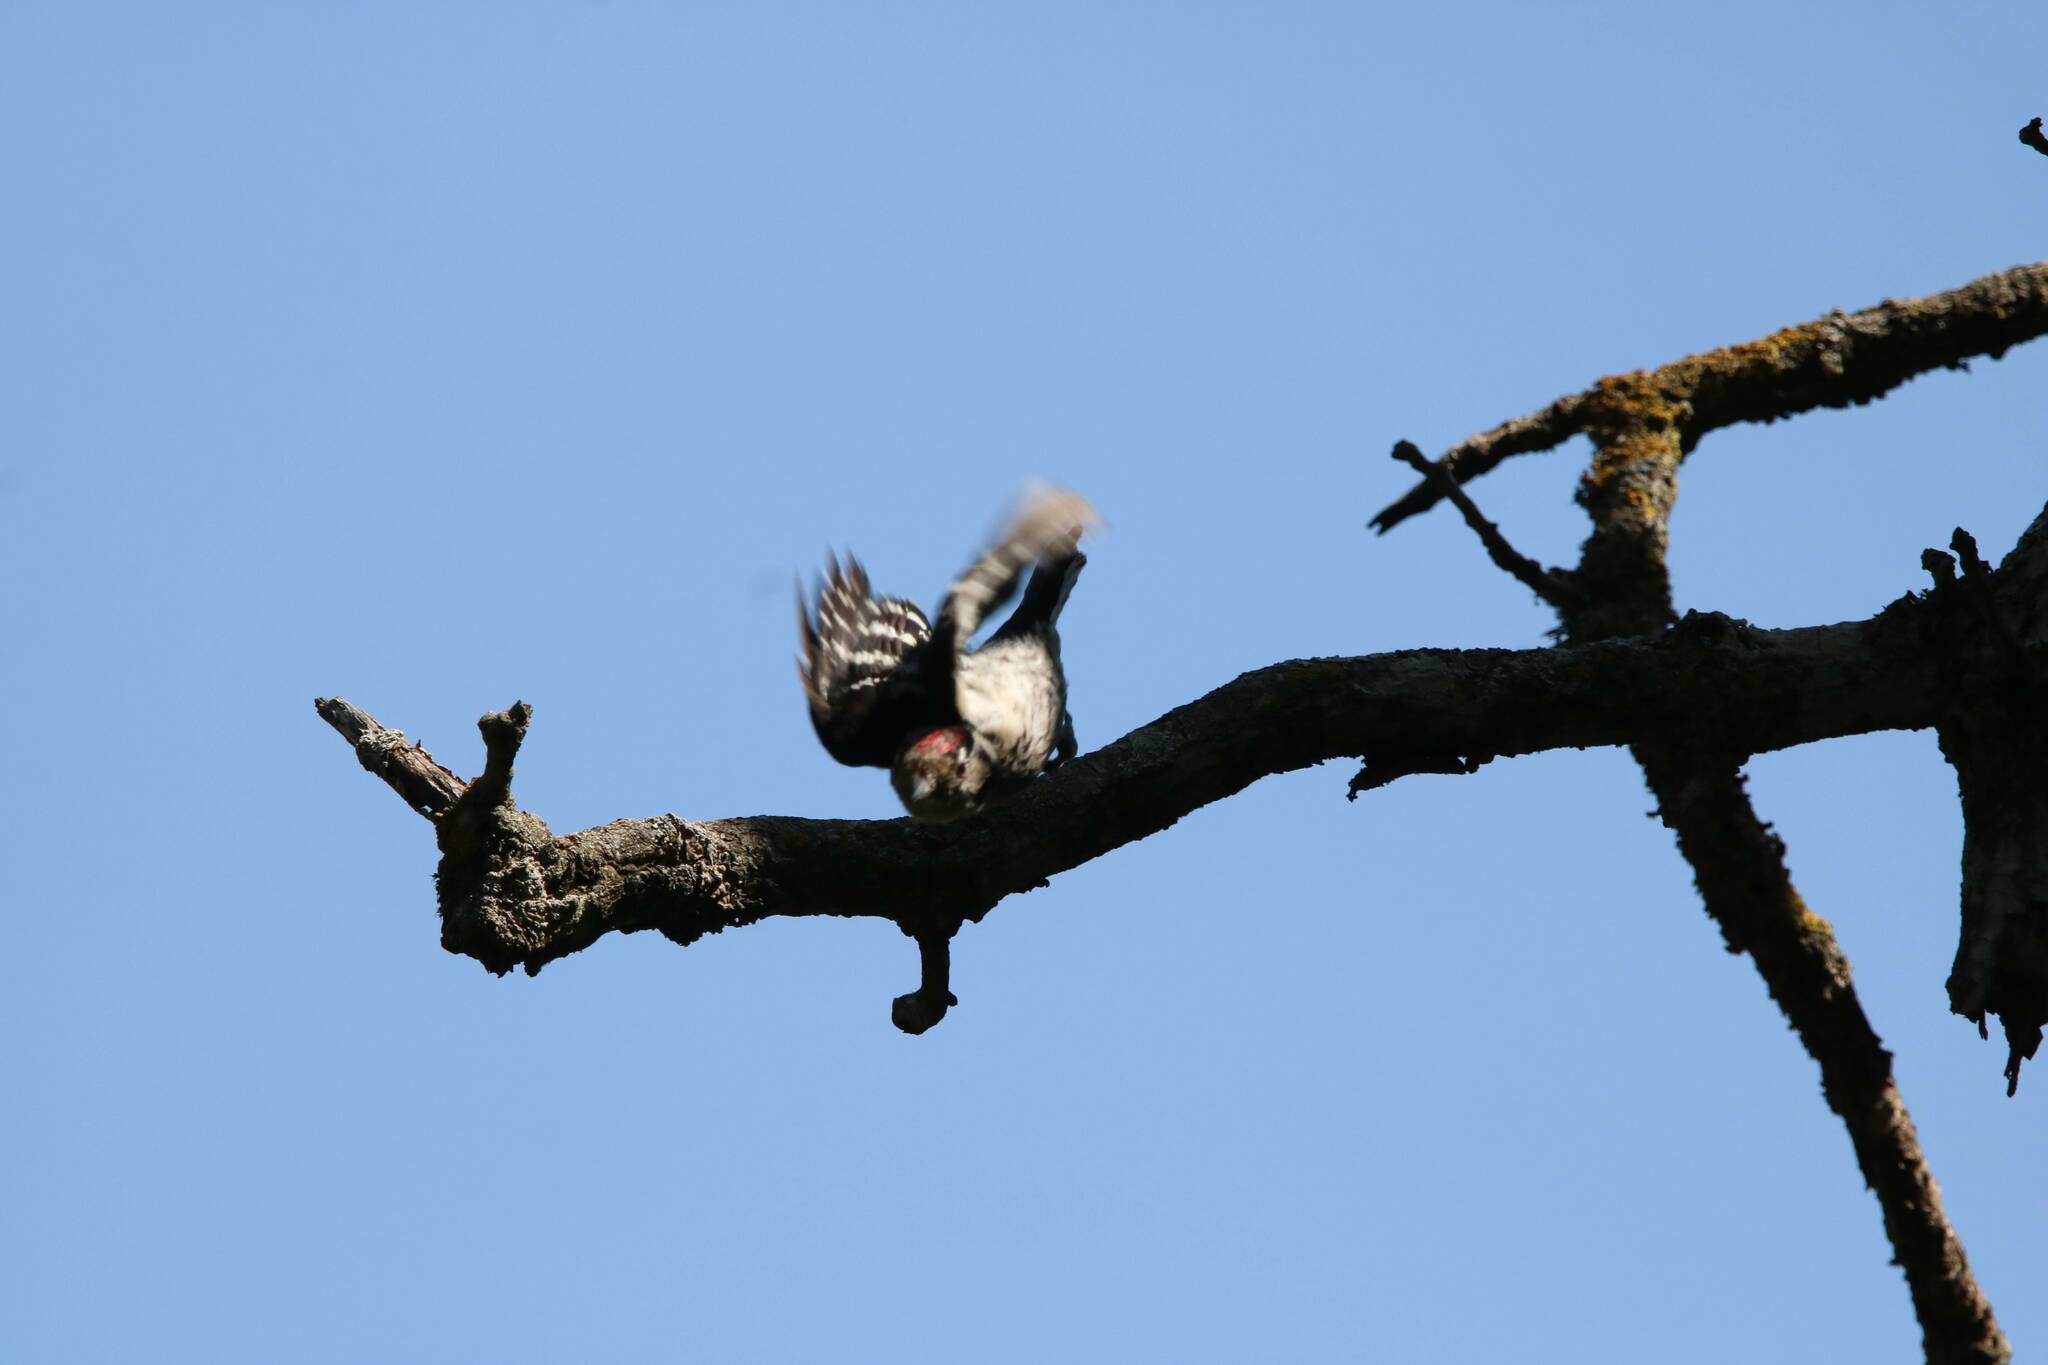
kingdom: Animalia
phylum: Chordata
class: Aves
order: Piciformes
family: Picidae
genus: Dryobates
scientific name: Dryobates minor
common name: Lesser spotted woodpecker
